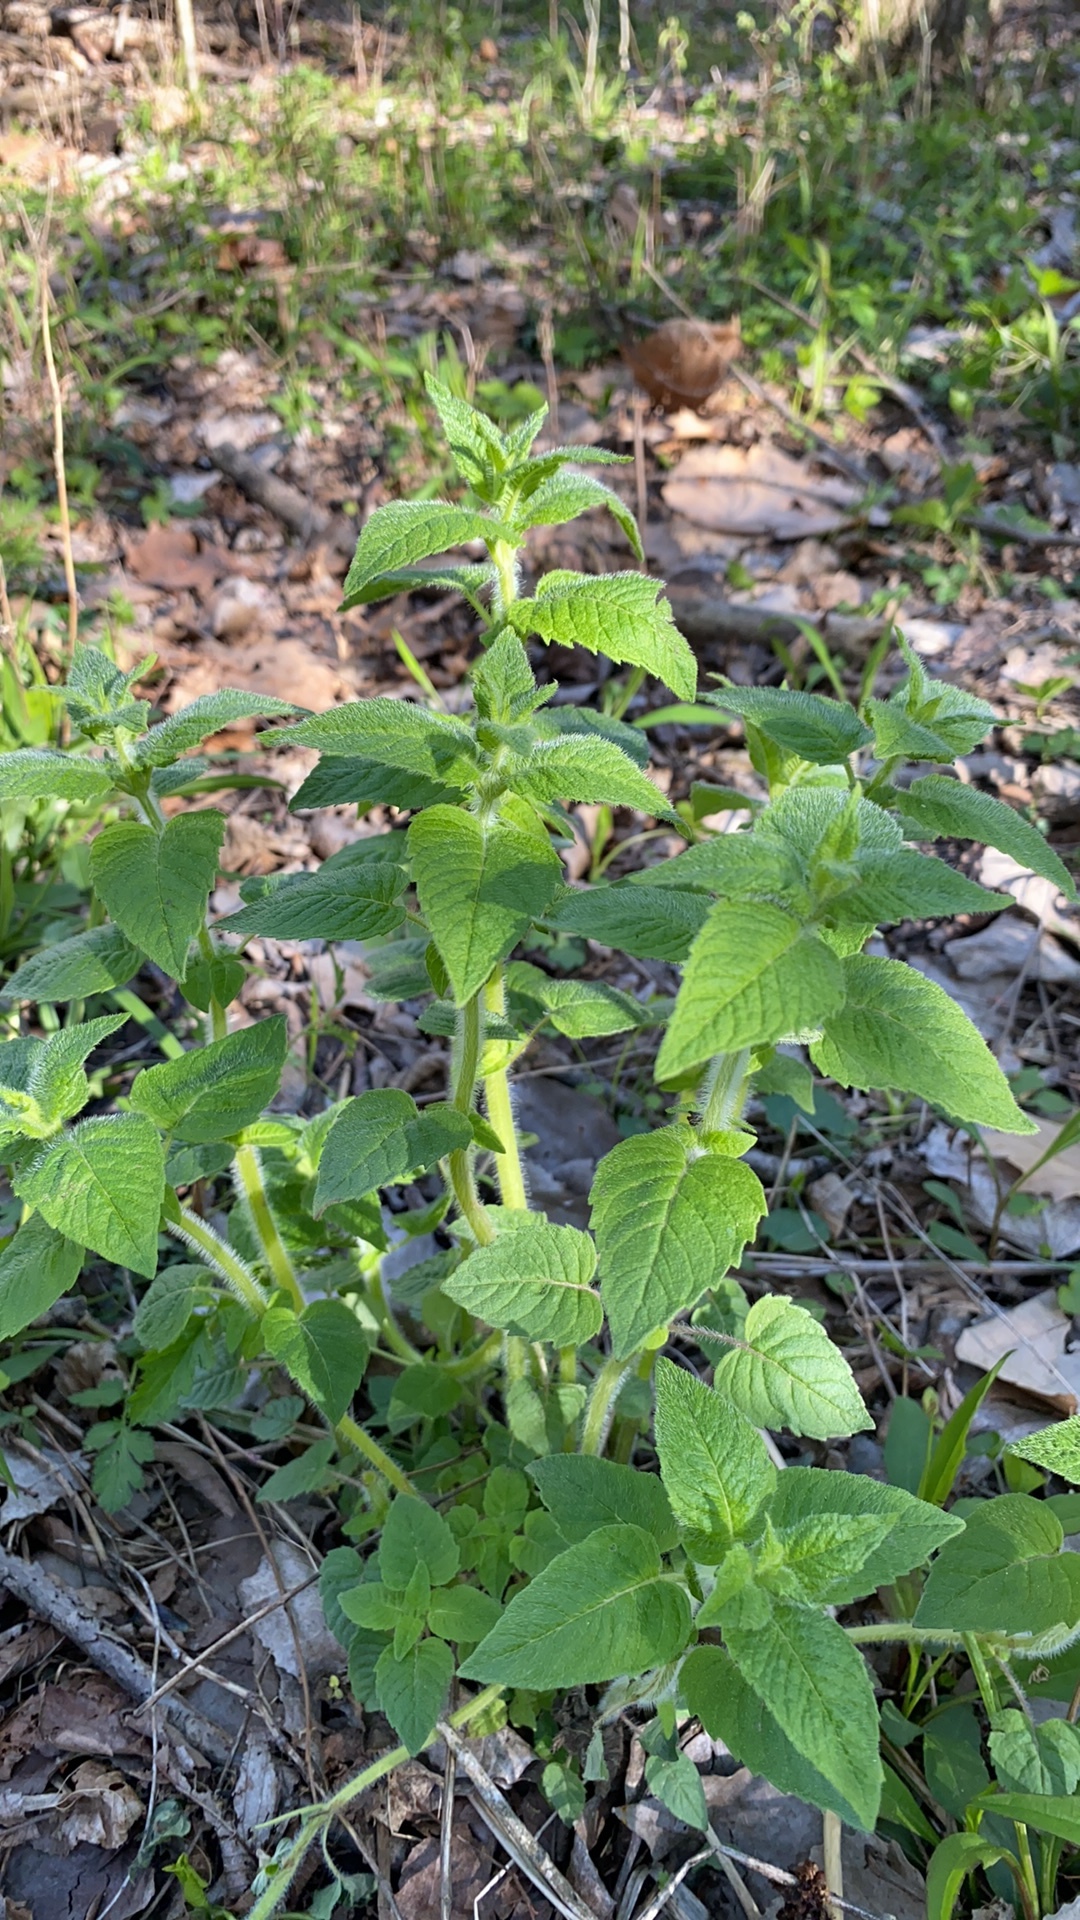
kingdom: Plantae
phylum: Tracheophyta
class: Magnoliopsida
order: Lamiales
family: Lamiaceae
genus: Blephilia
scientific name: Blephilia hirsuta
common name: Hairy blephilia
